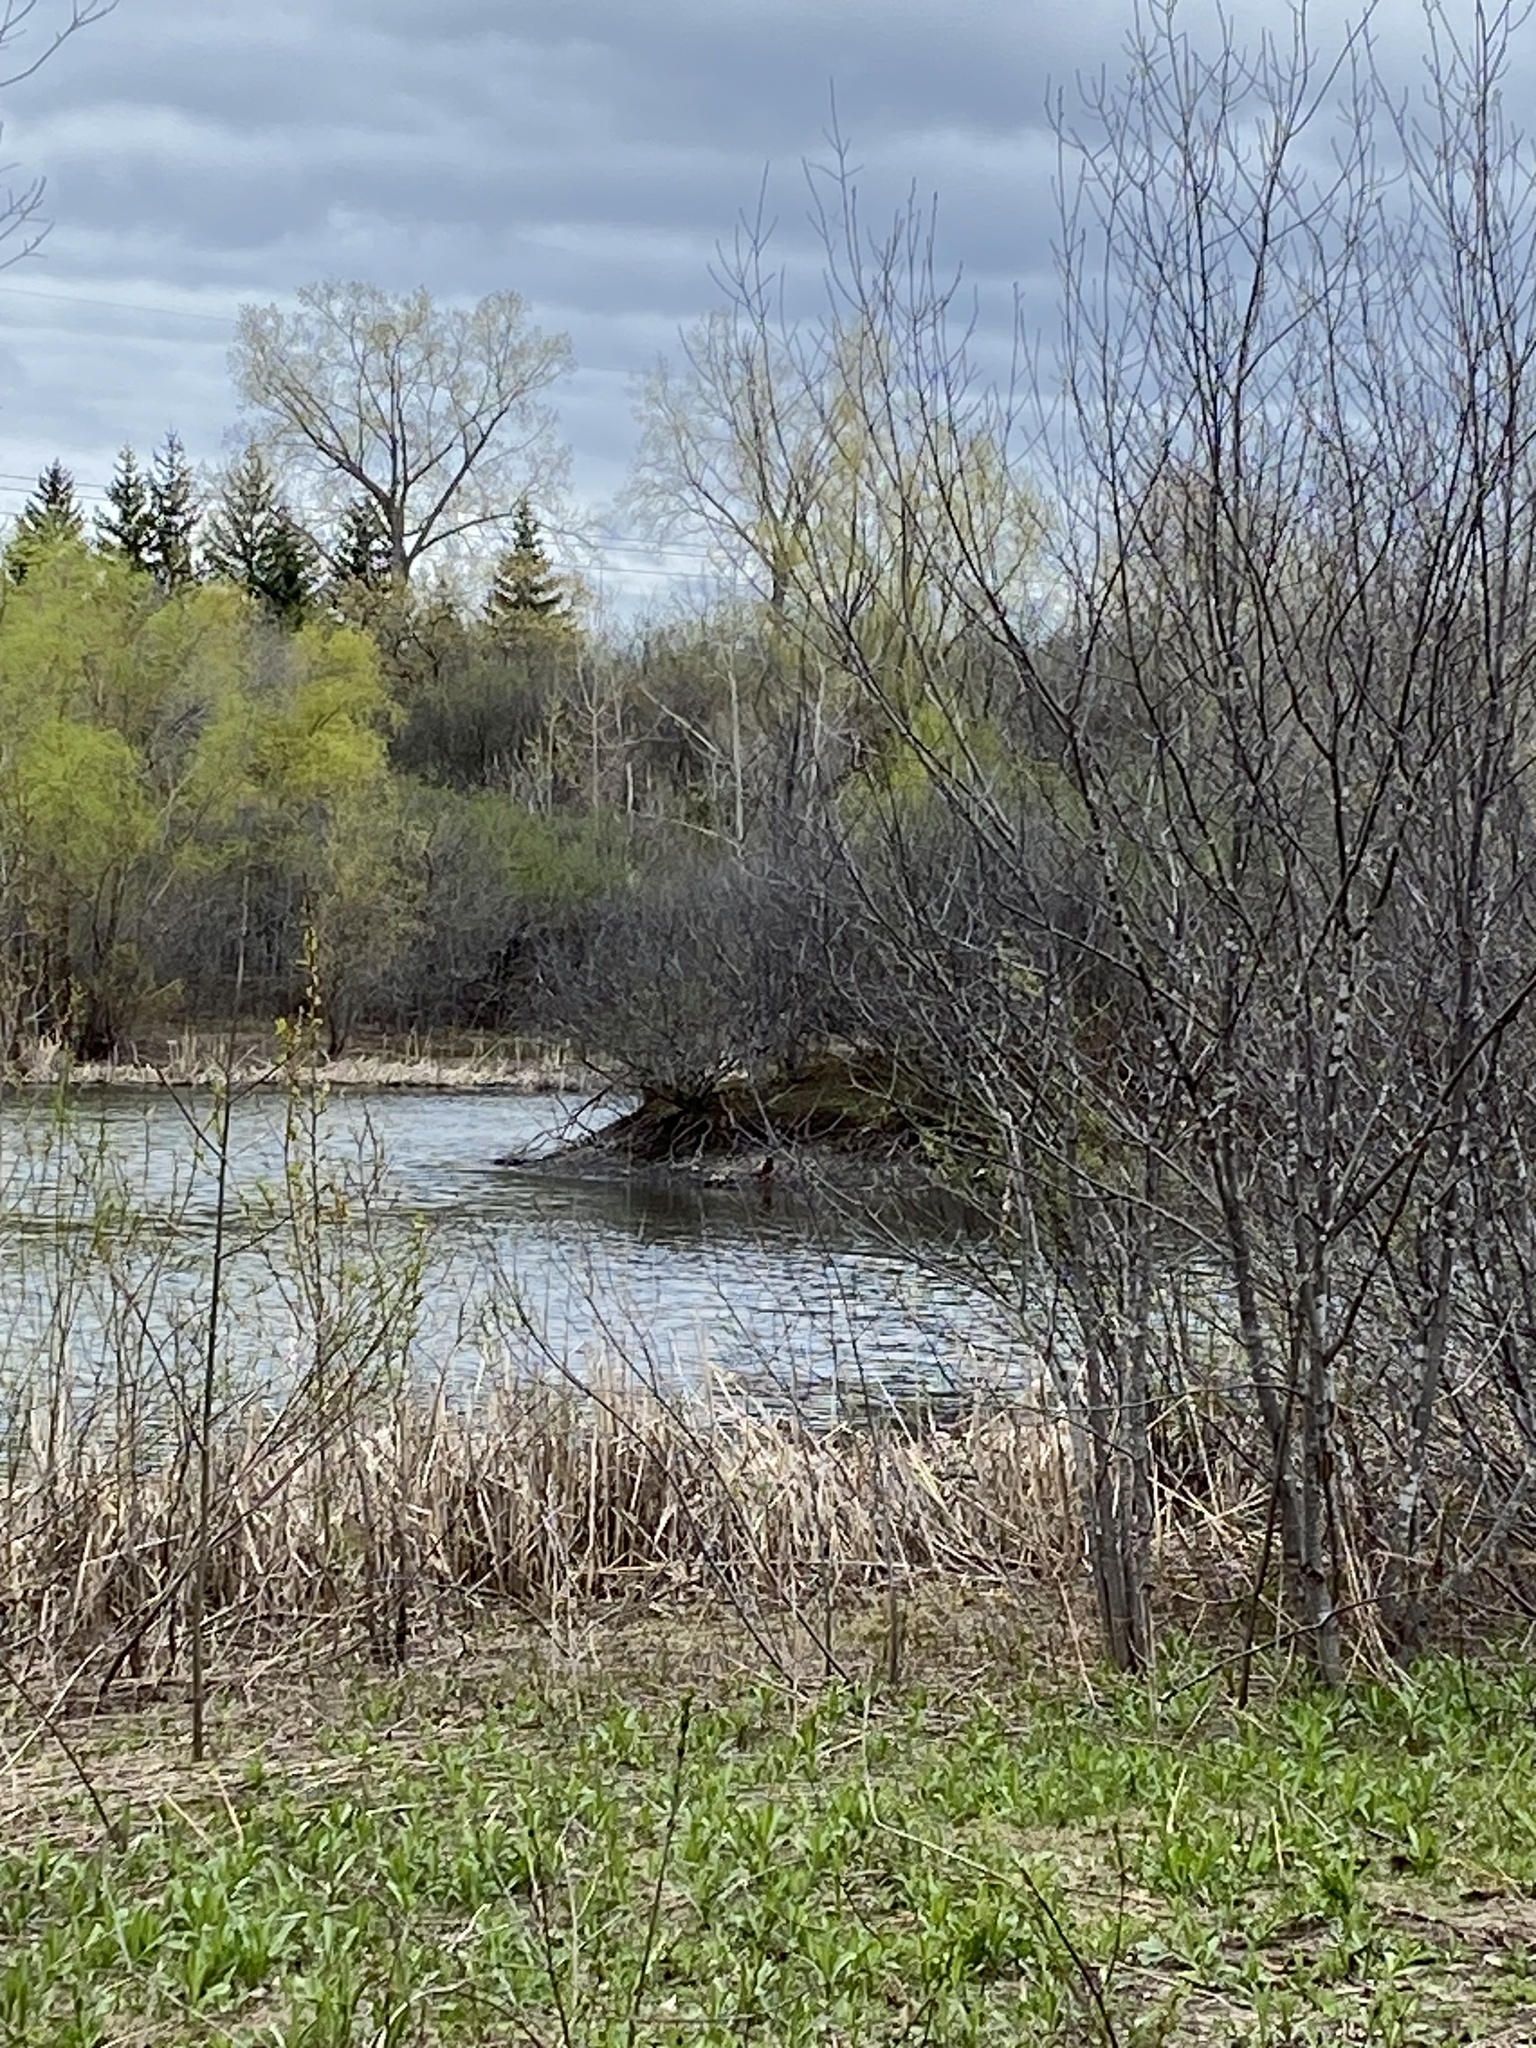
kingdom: Animalia
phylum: Chordata
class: Aves
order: Anseriformes
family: Anatidae
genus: Anas
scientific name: Anas platyrhynchos
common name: Mallard
